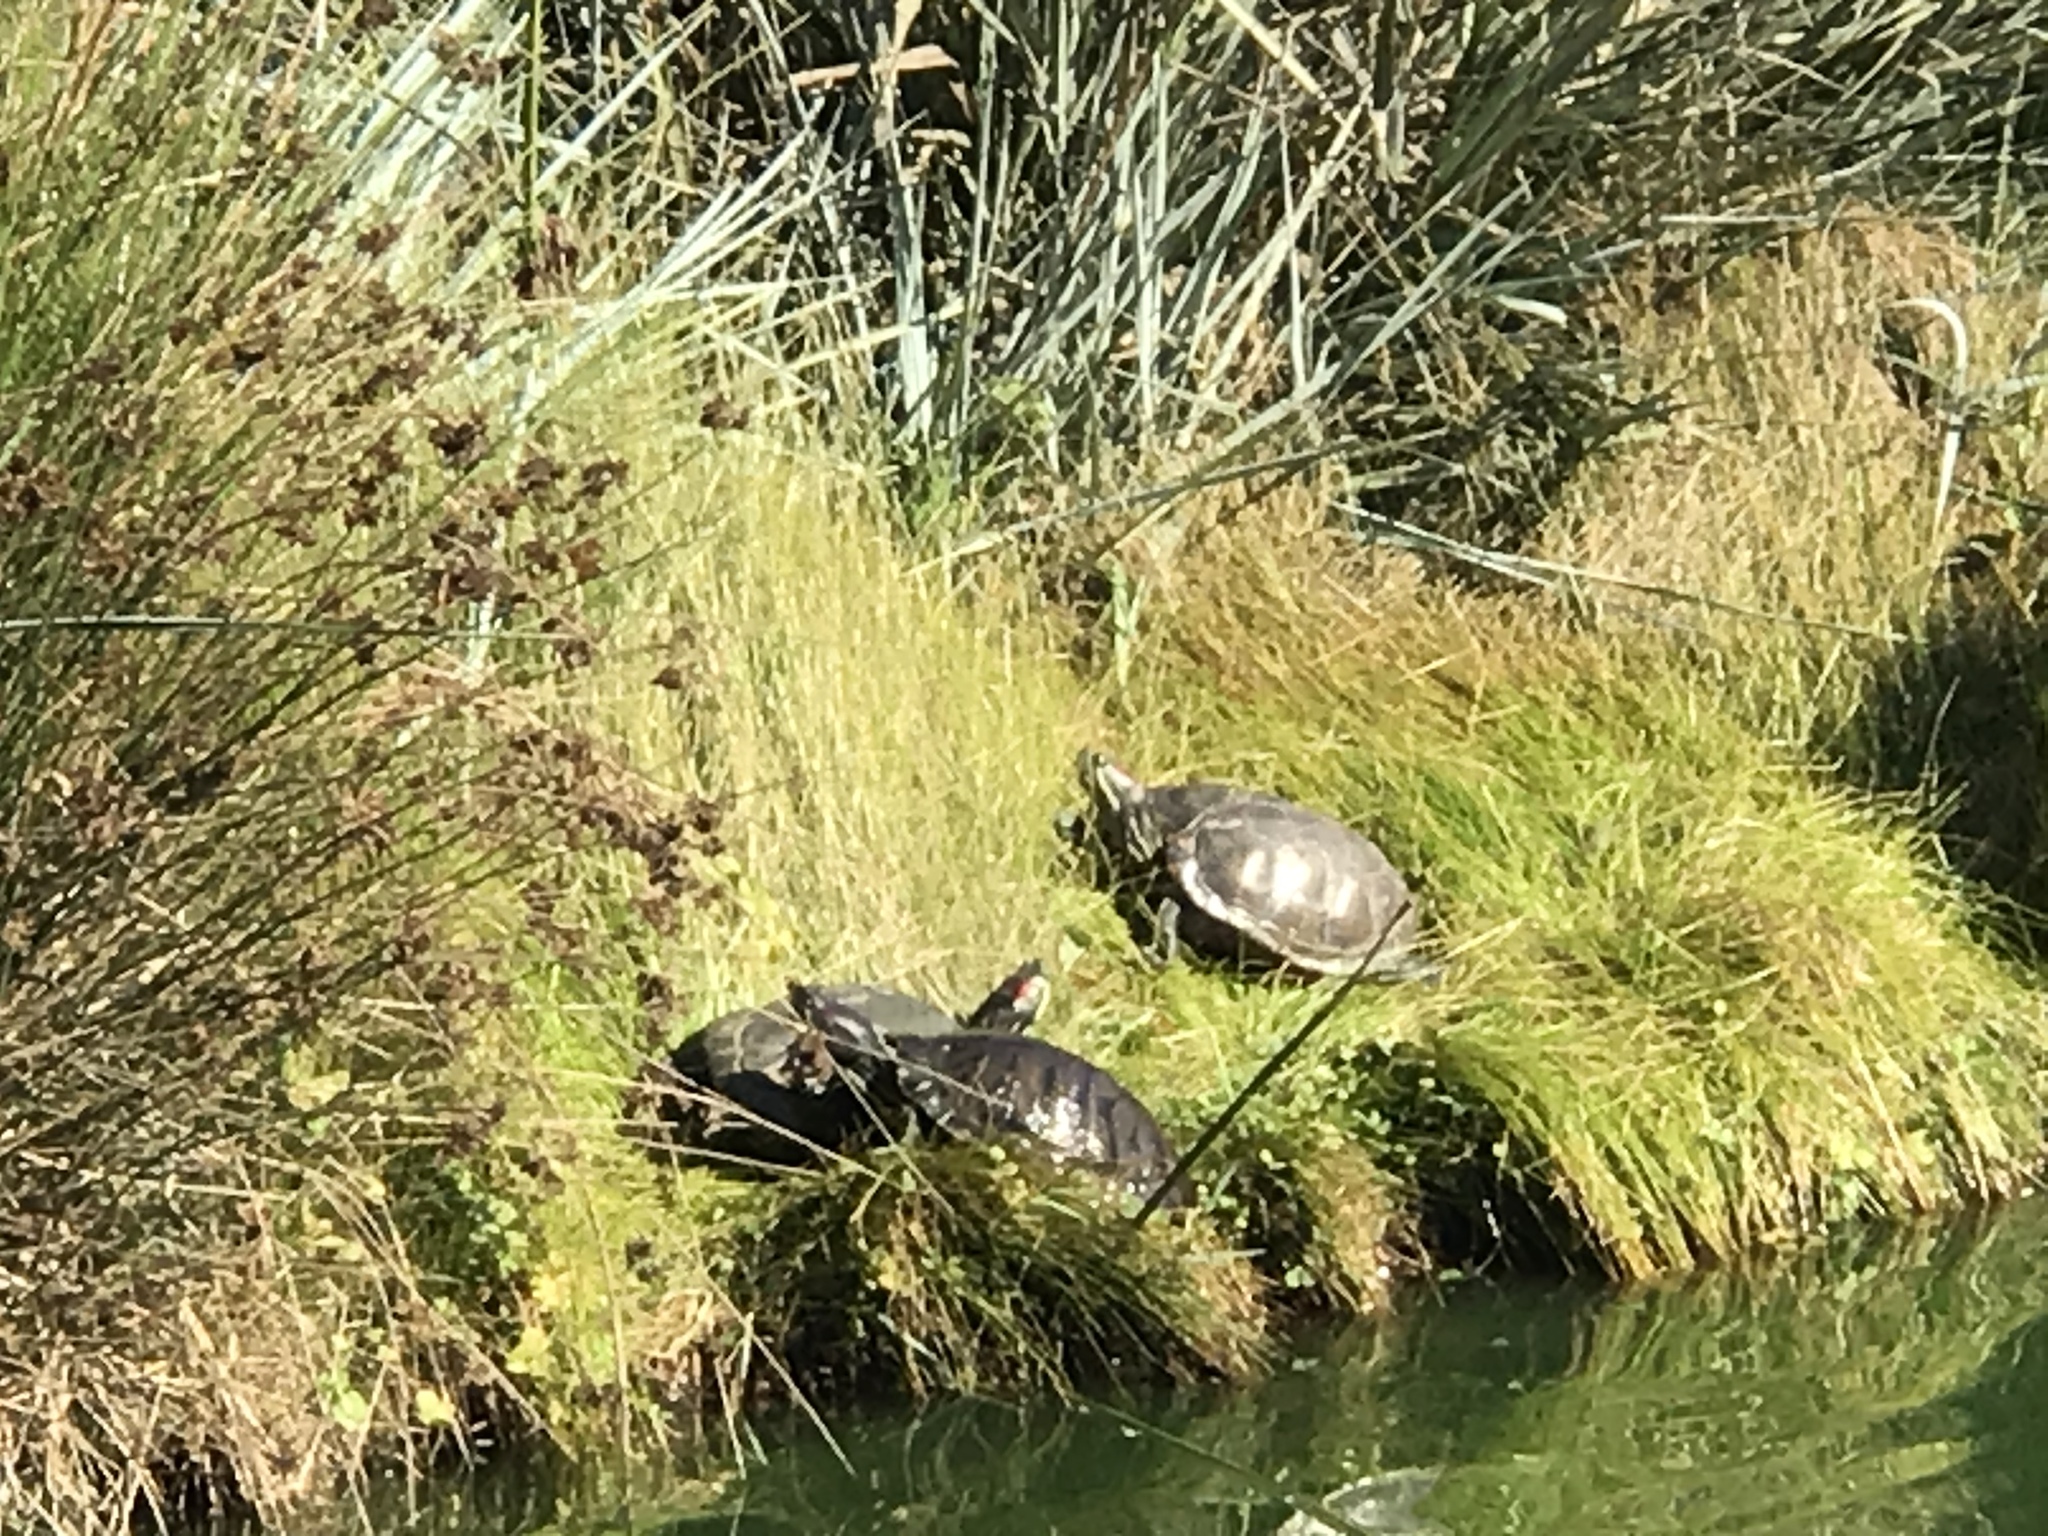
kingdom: Animalia
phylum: Chordata
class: Testudines
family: Emydidae
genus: Trachemys
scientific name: Trachemys scripta
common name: Slider
